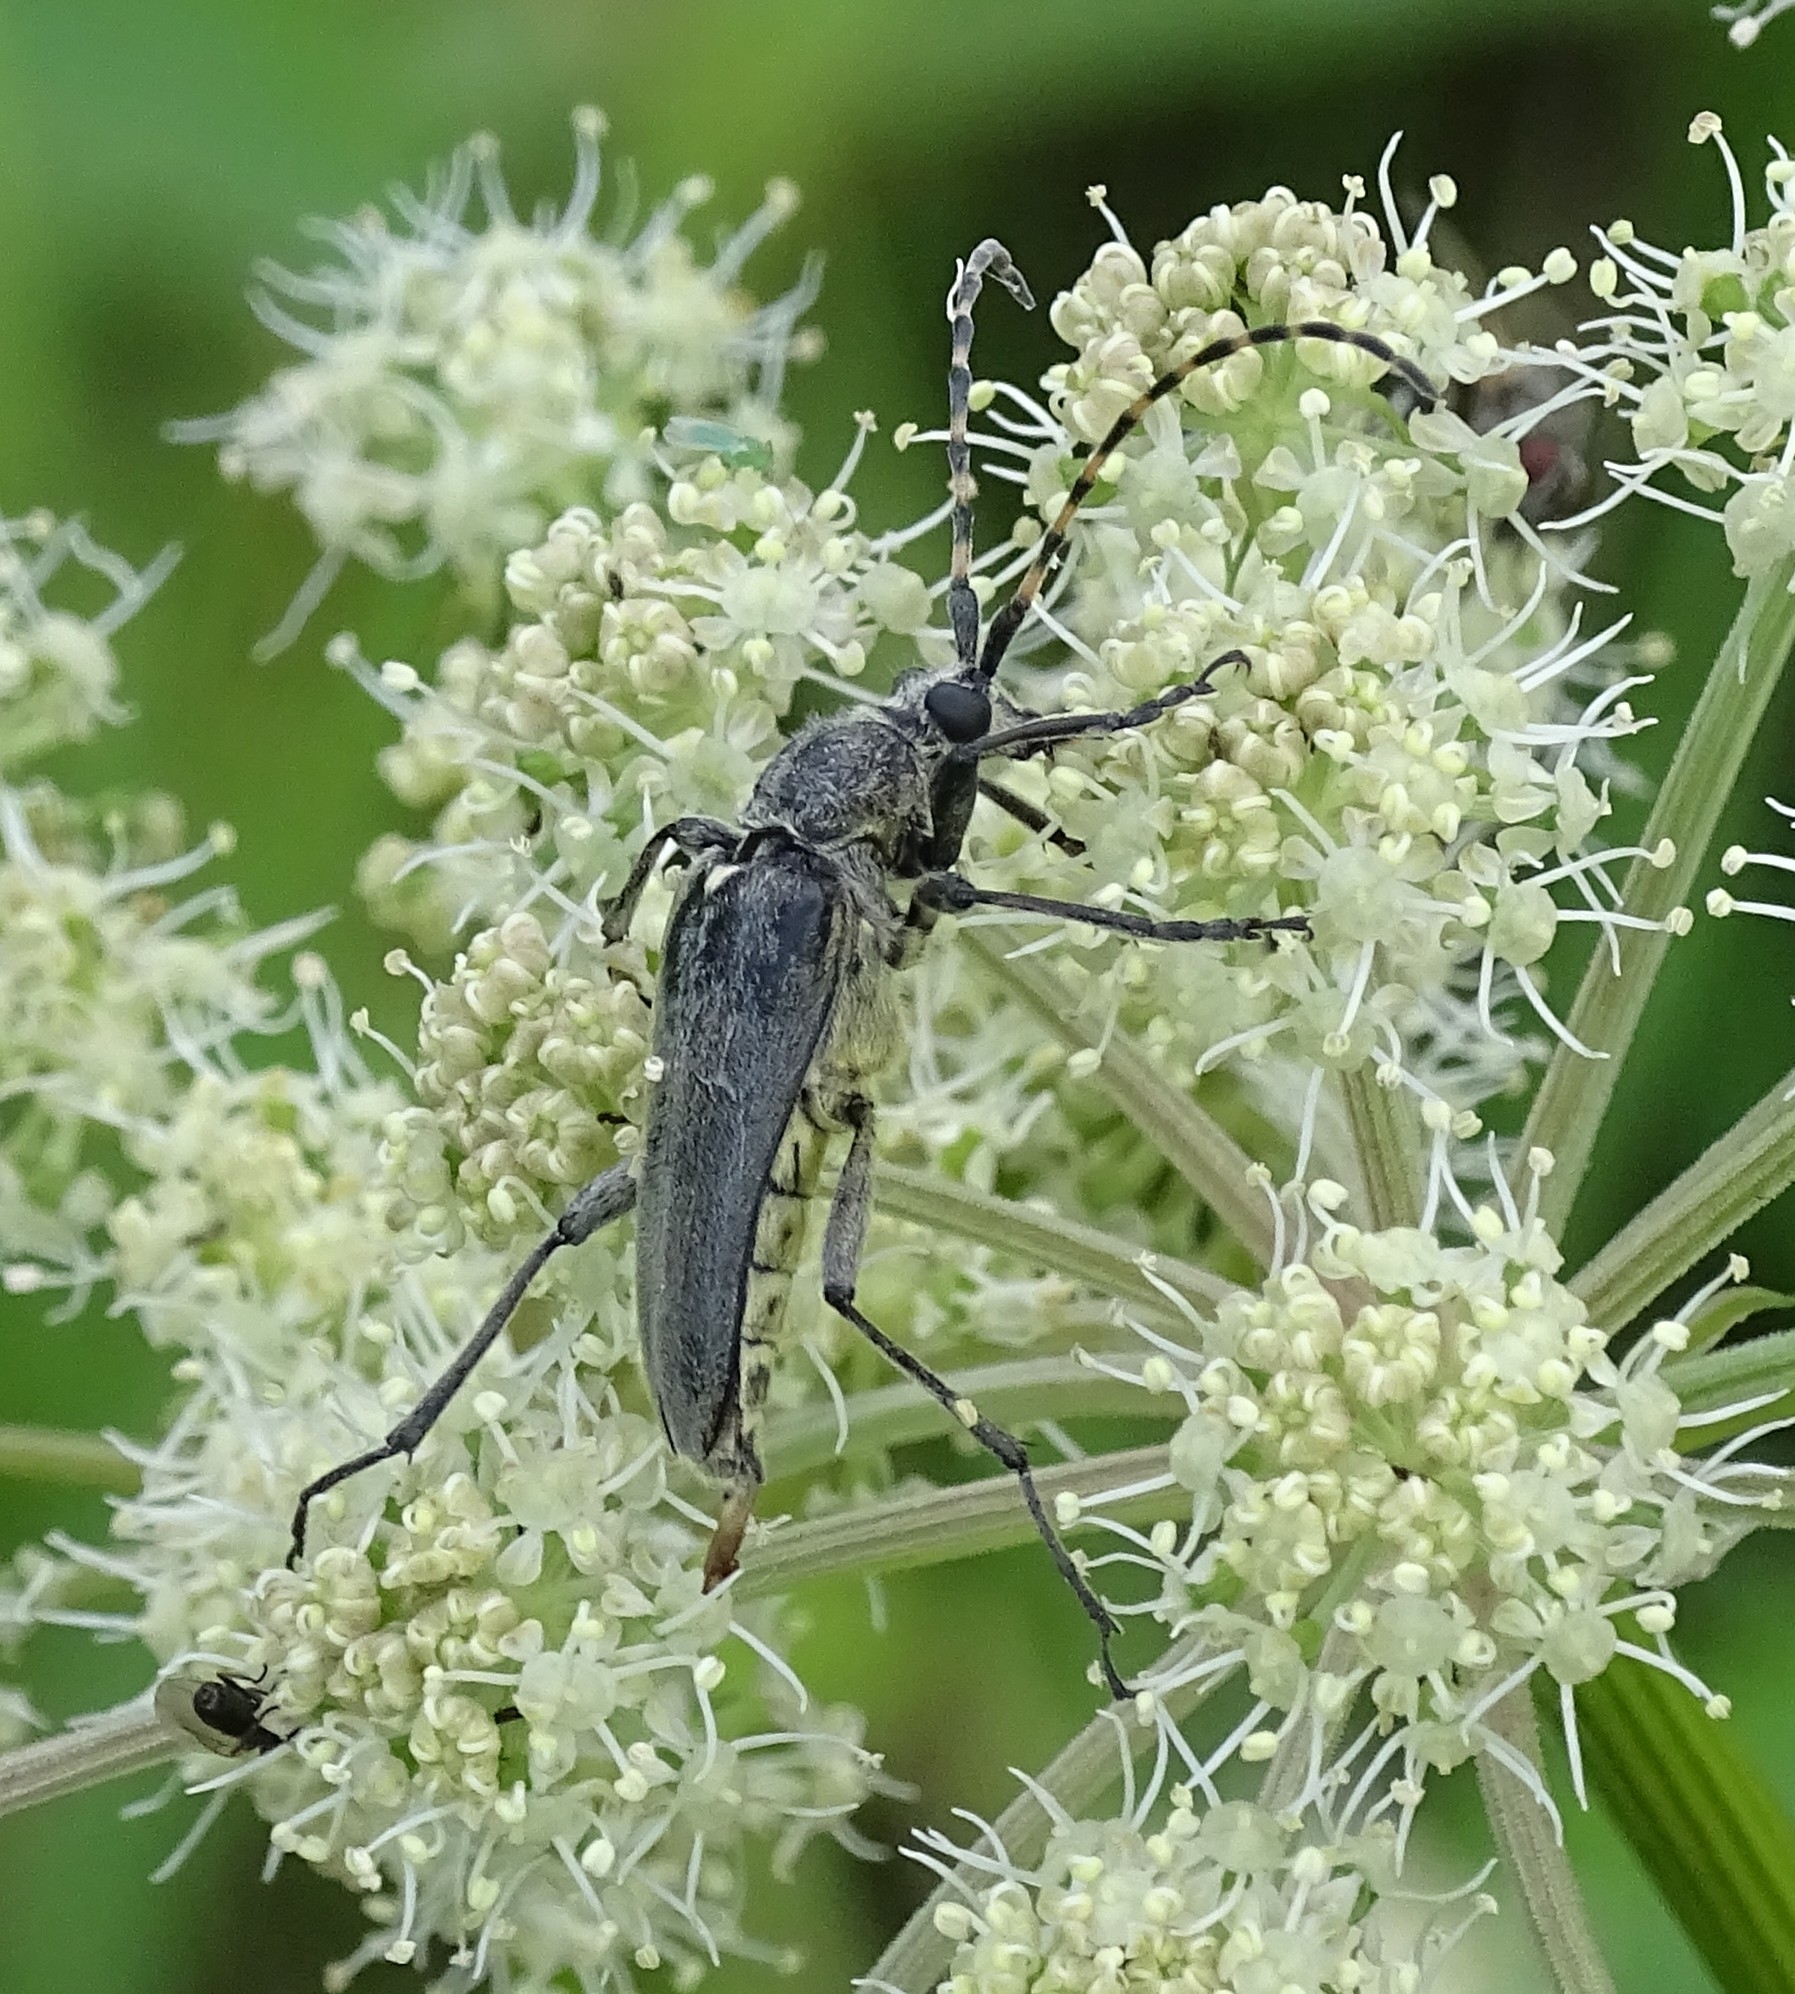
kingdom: Animalia
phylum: Arthropoda
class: Insecta
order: Coleoptera
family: Cerambycidae
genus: Lepturobosca
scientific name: Lepturobosca virens
